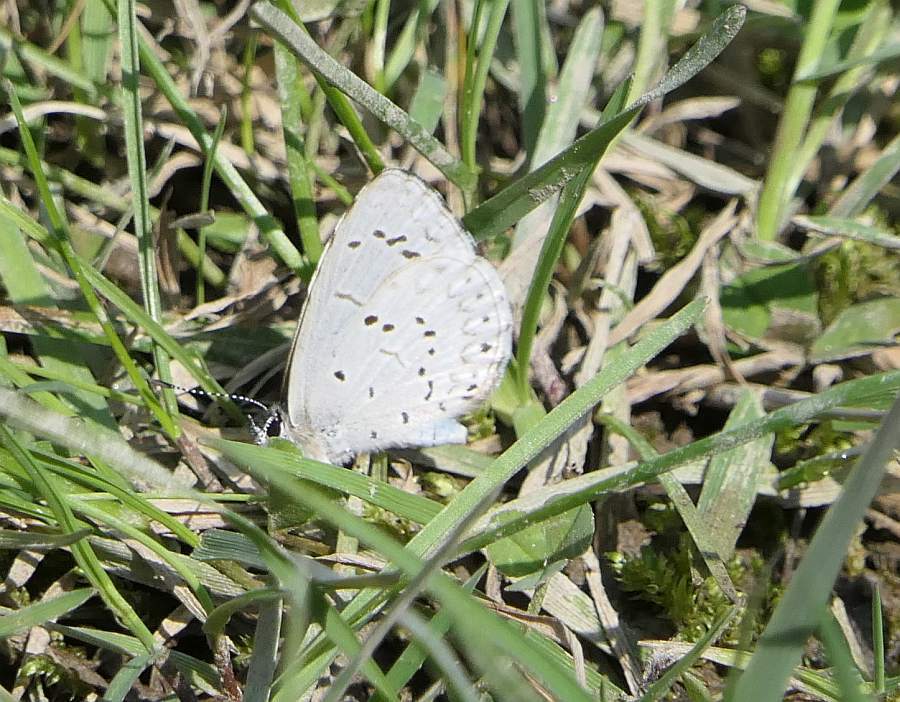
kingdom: Animalia
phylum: Arthropoda
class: Insecta
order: Lepidoptera
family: Lycaenidae
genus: Celastrina
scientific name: Celastrina lucia
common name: Lucia azure
